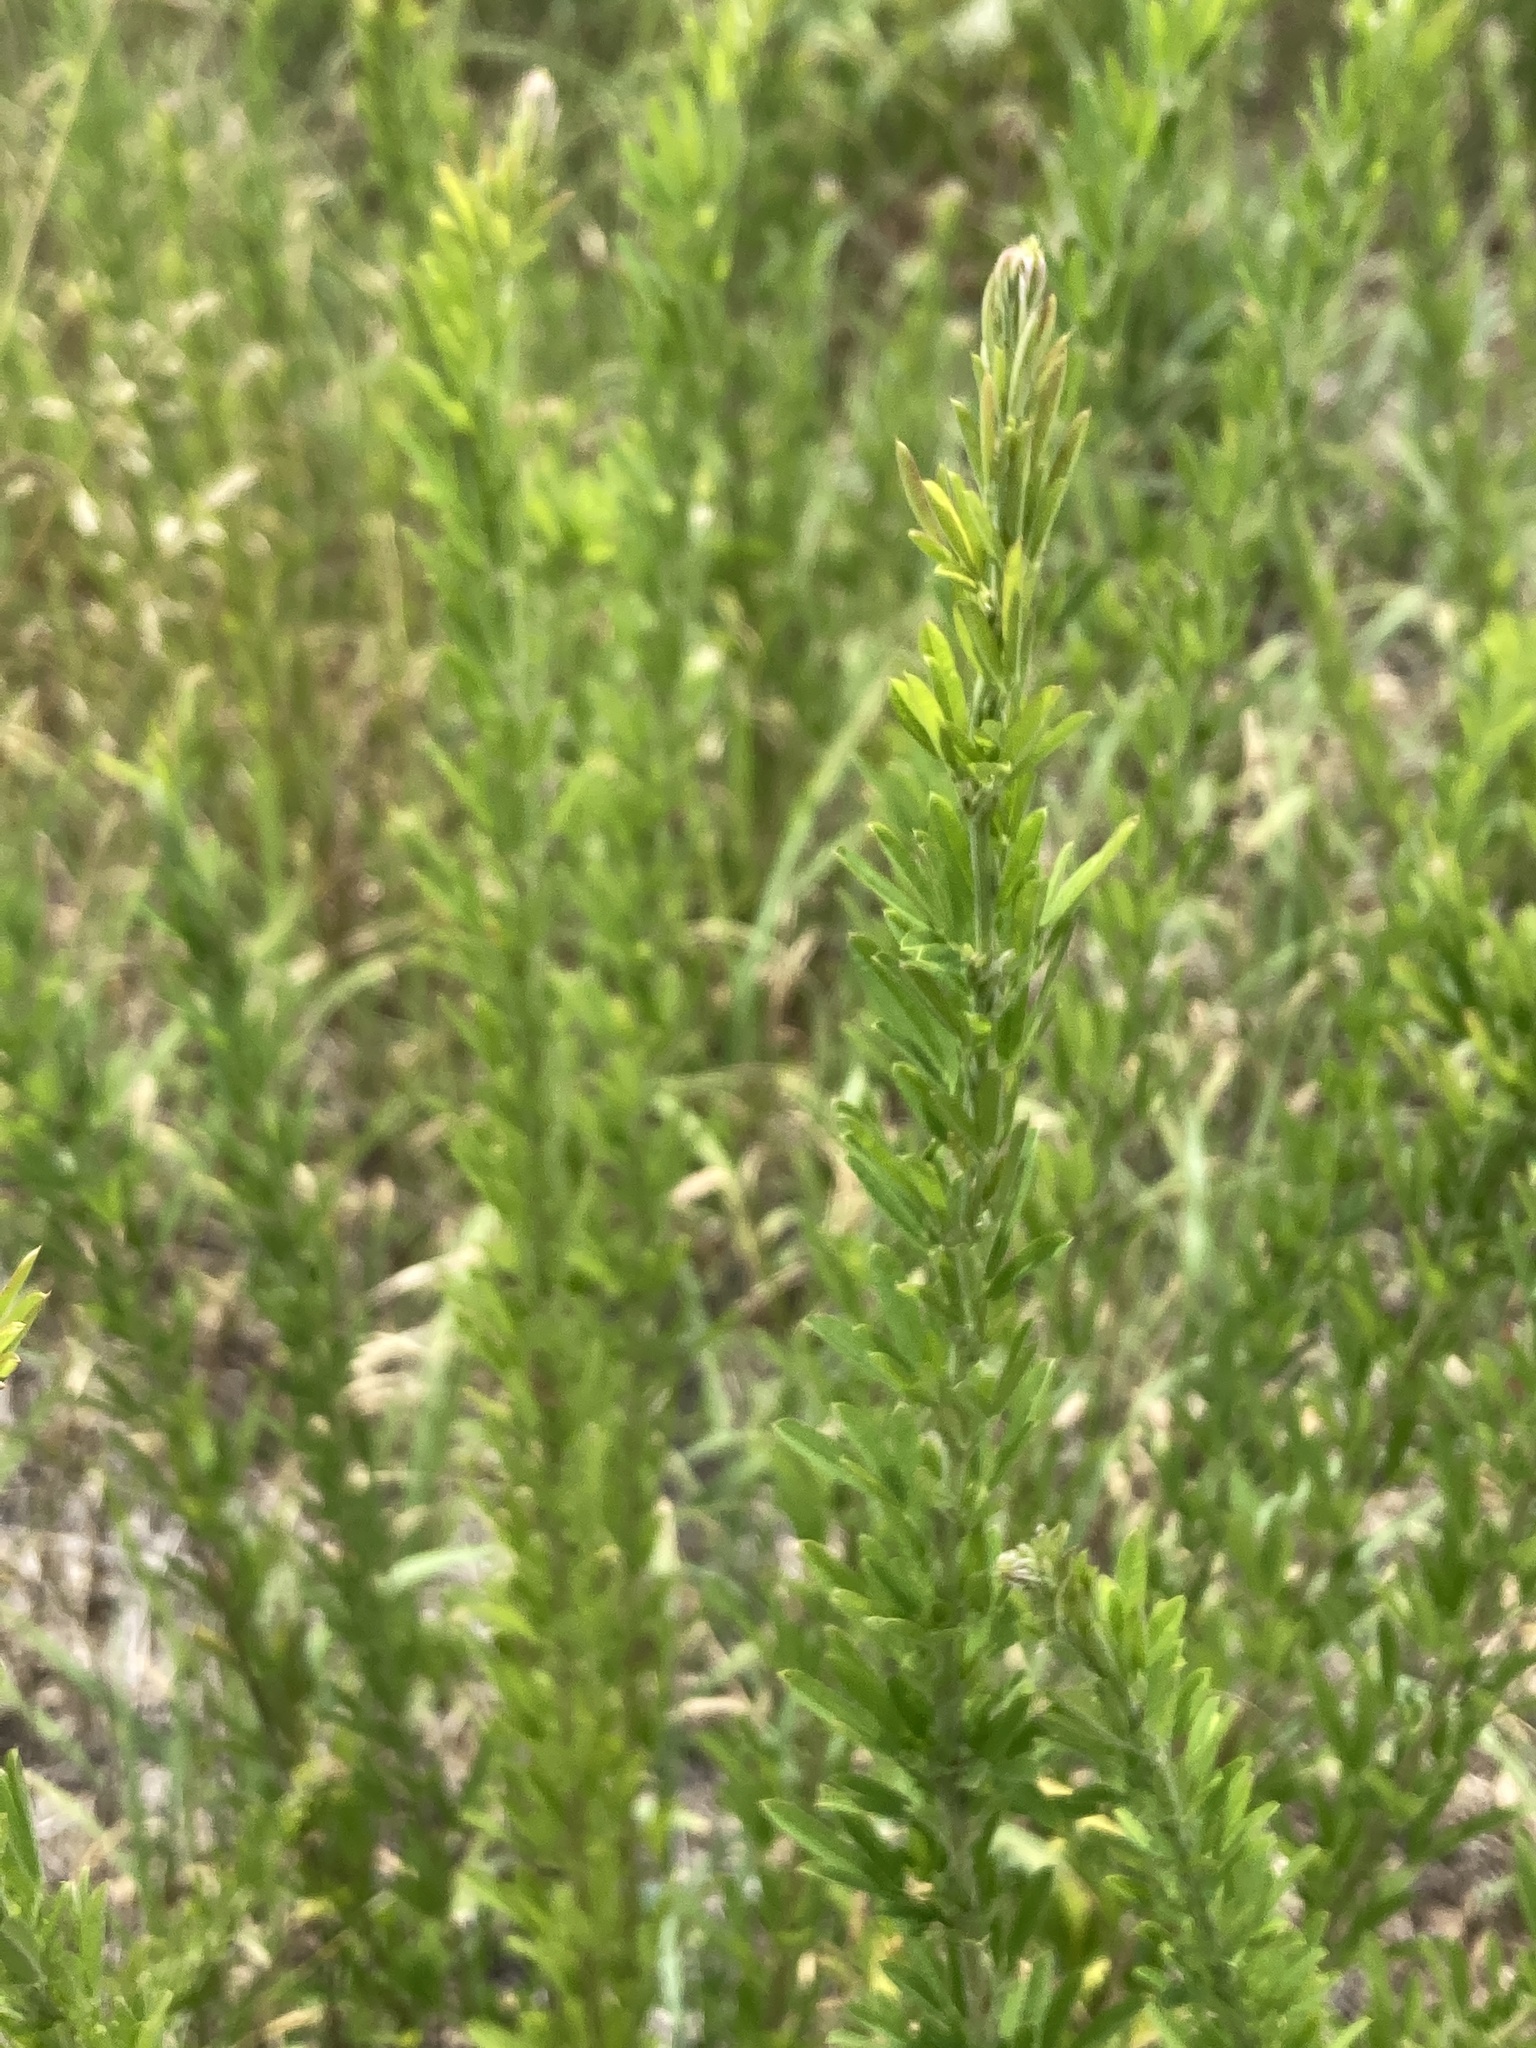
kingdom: Plantae
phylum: Tracheophyta
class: Magnoliopsida
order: Fabales
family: Fabaceae
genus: Lespedeza
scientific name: Lespedeza cuneata
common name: Chinese bush-clover
